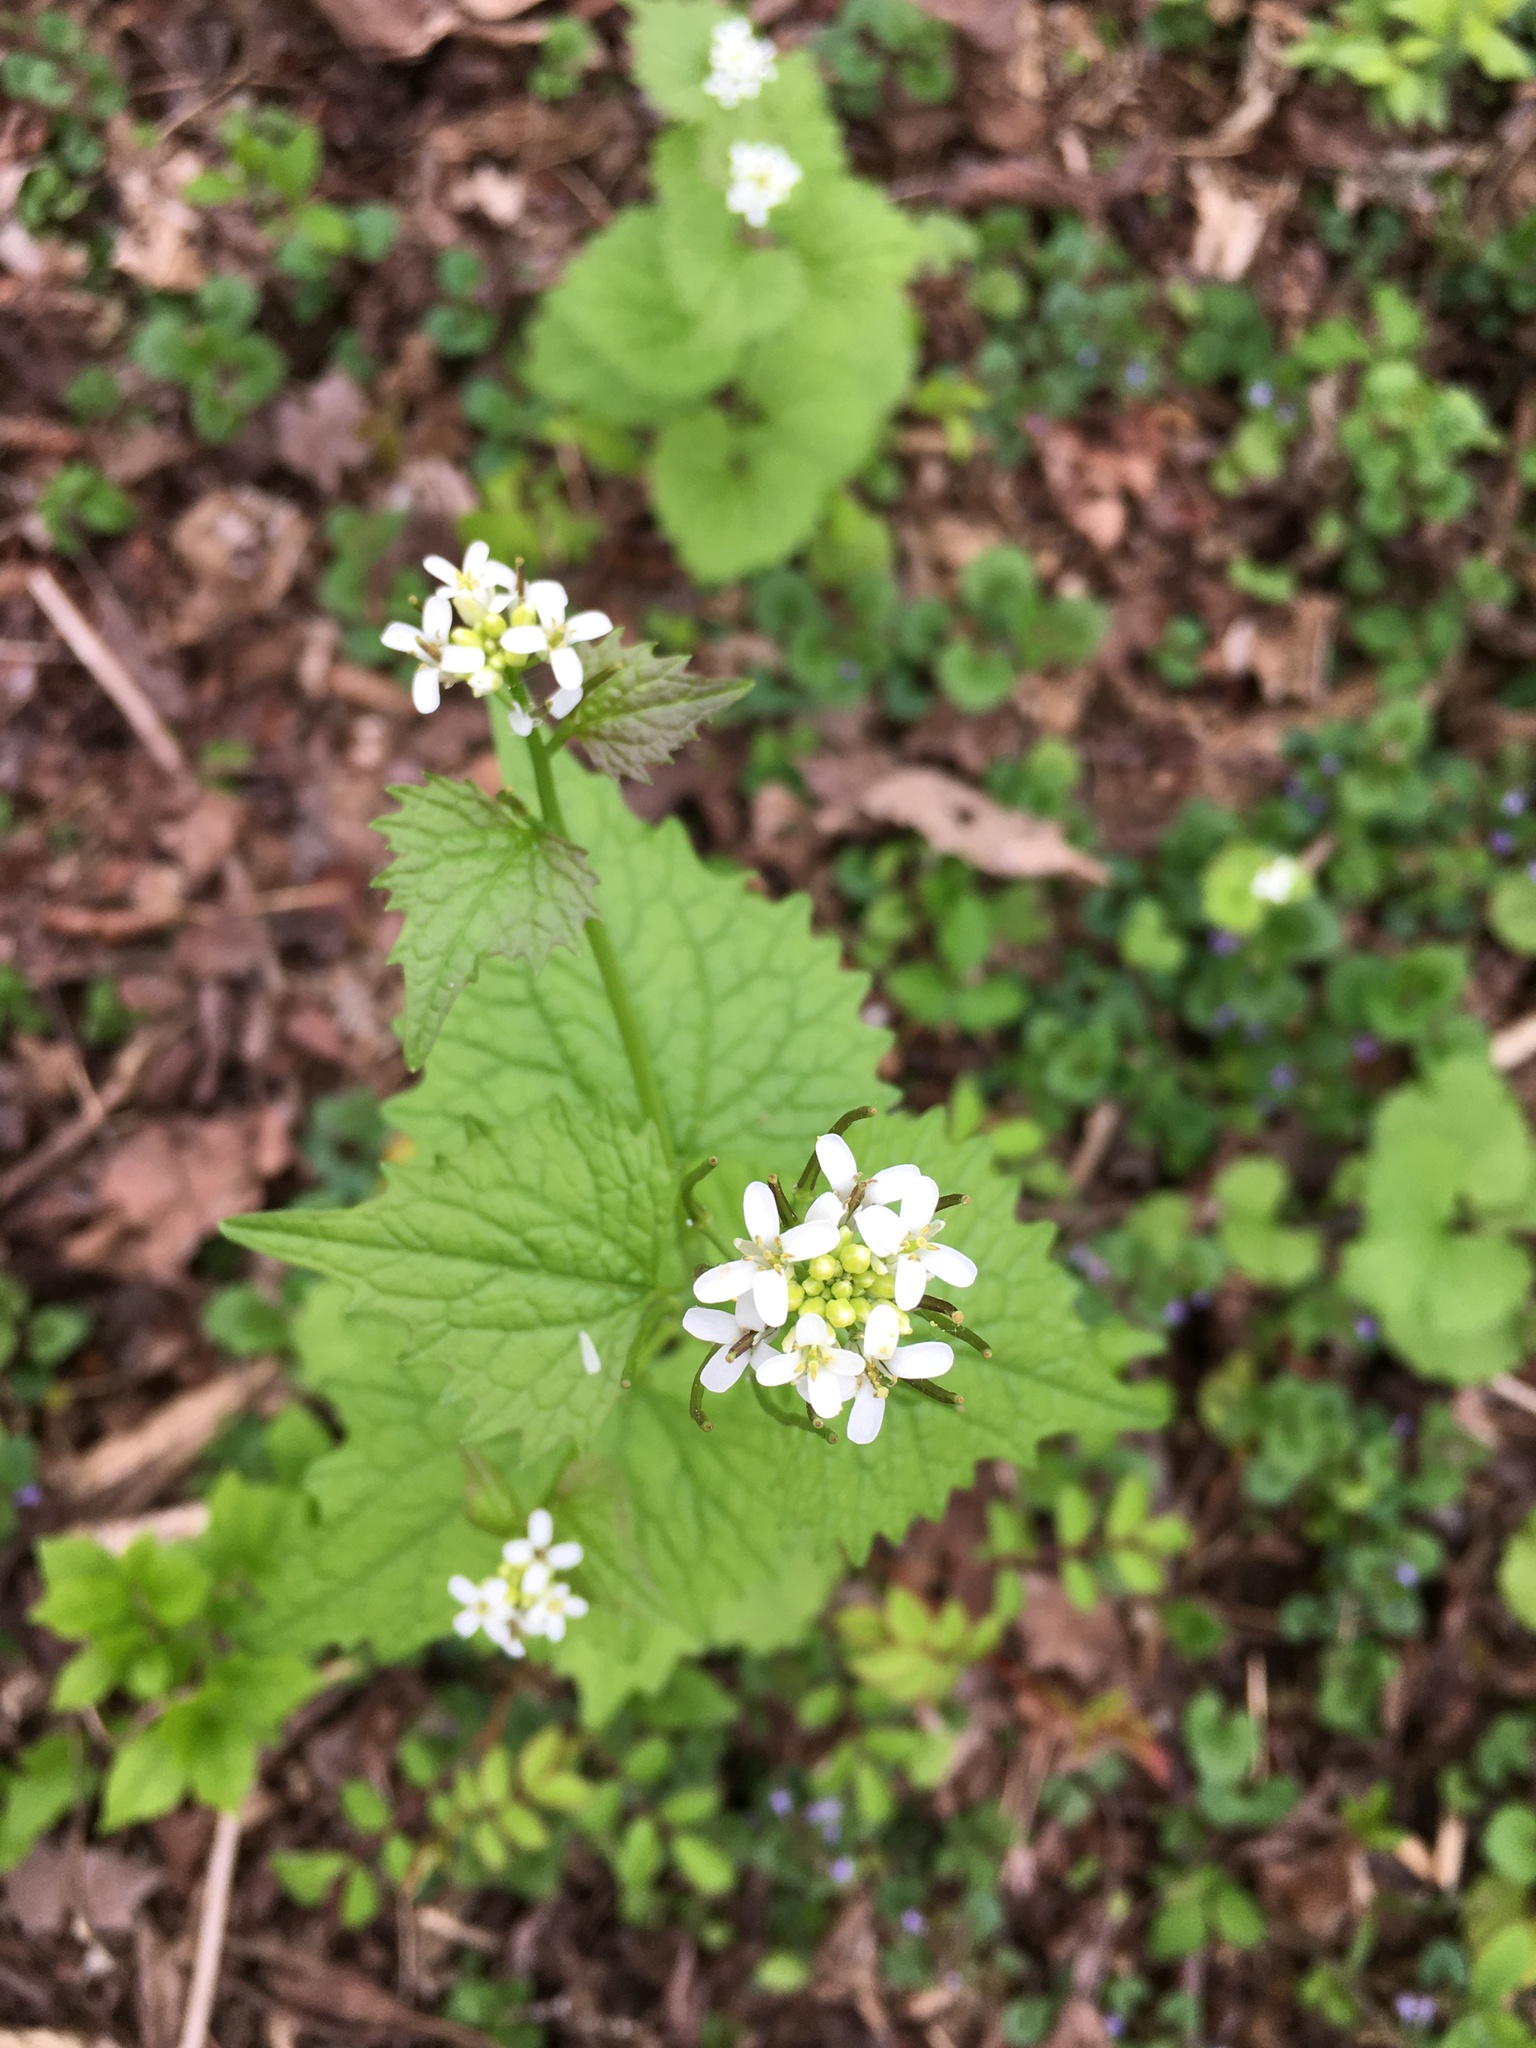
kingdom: Plantae
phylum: Tracheophyta
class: Magnoliopsida
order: Brassicales
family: Brassicaceae
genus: Alliaria
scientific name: Alliaria petiolata
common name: Garlic mustard
